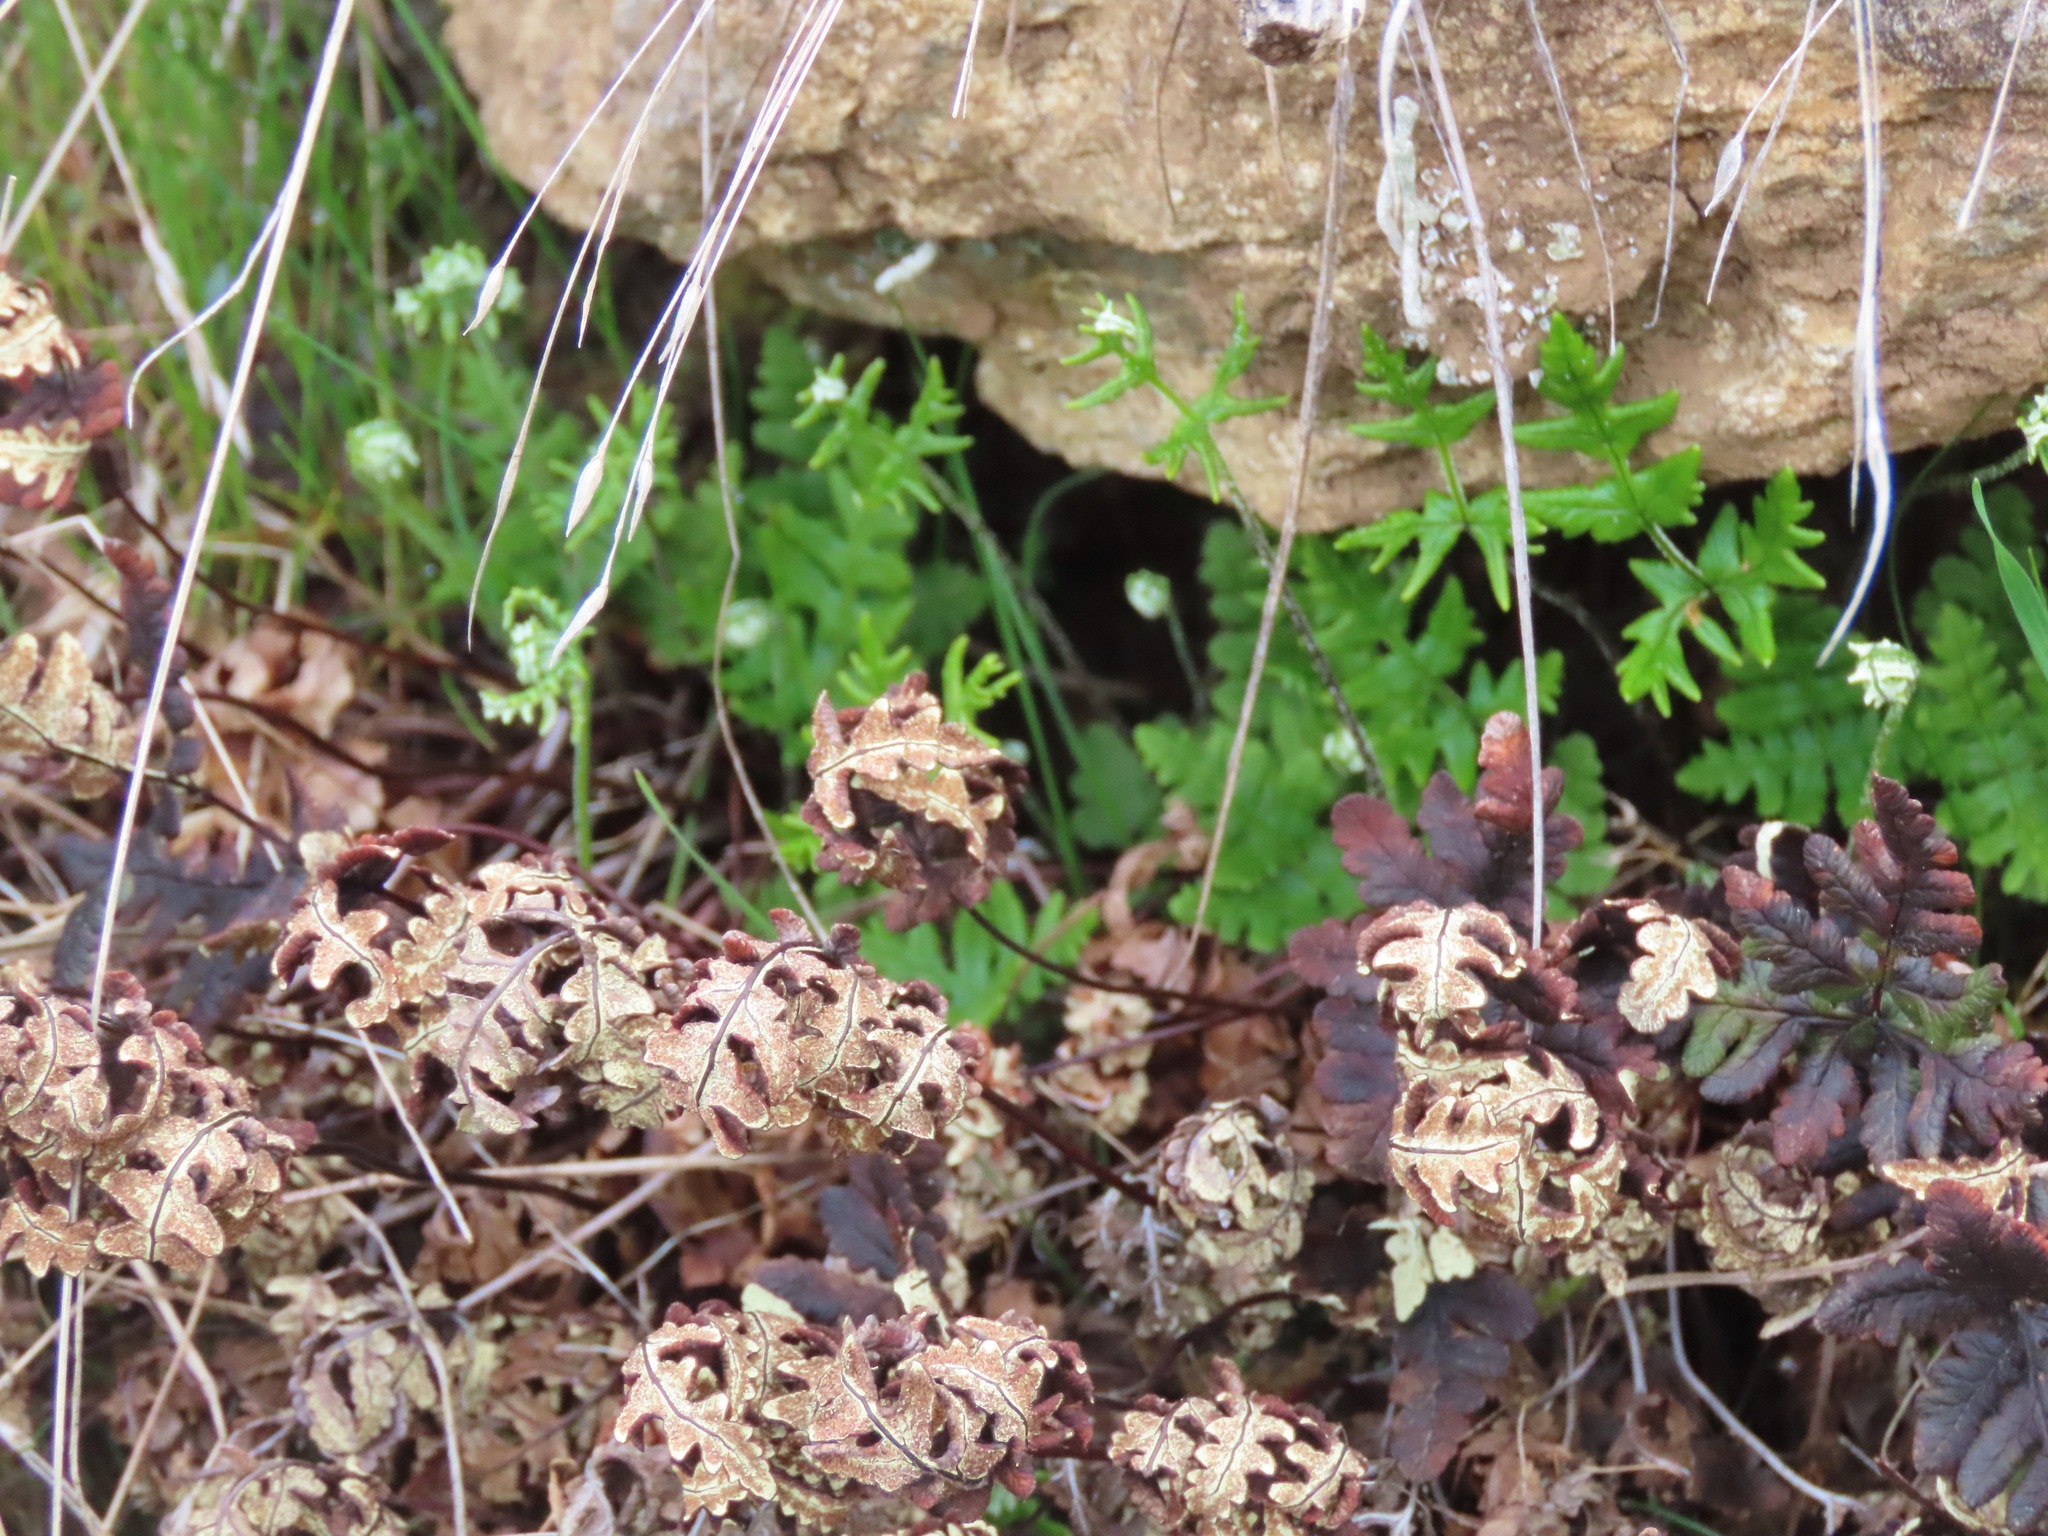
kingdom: Plantae
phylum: Tracheophyta
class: Polypodiopsida
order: Polypodiales
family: Pteridaceae
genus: Pentagramma
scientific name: Pentagramma triangularis
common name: Gold fern
